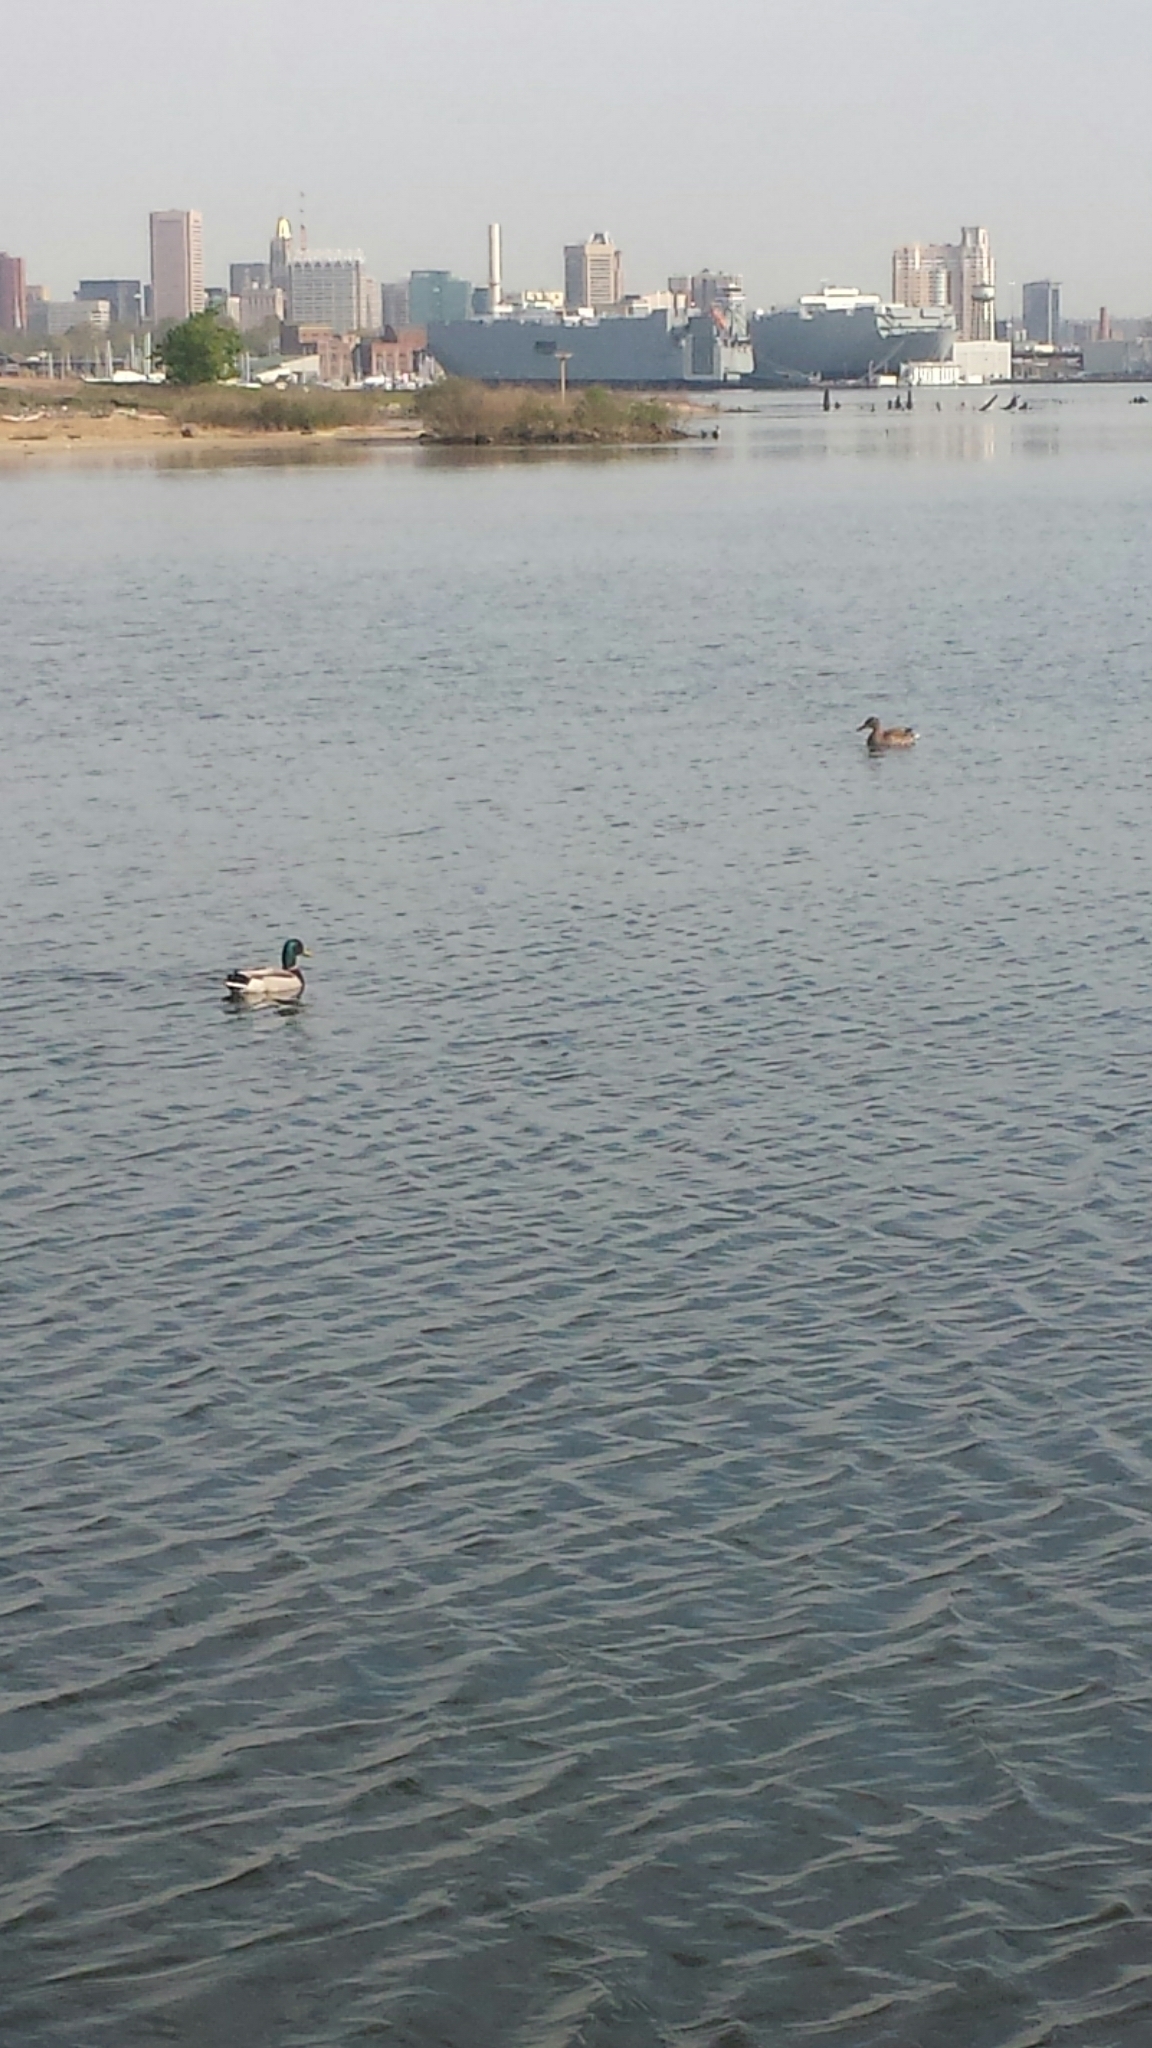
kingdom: Animalia
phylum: Chordata
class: Aves
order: Anseriformes
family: Anatidae
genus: Anas
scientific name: Anas platyrhynchos
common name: Mallard
